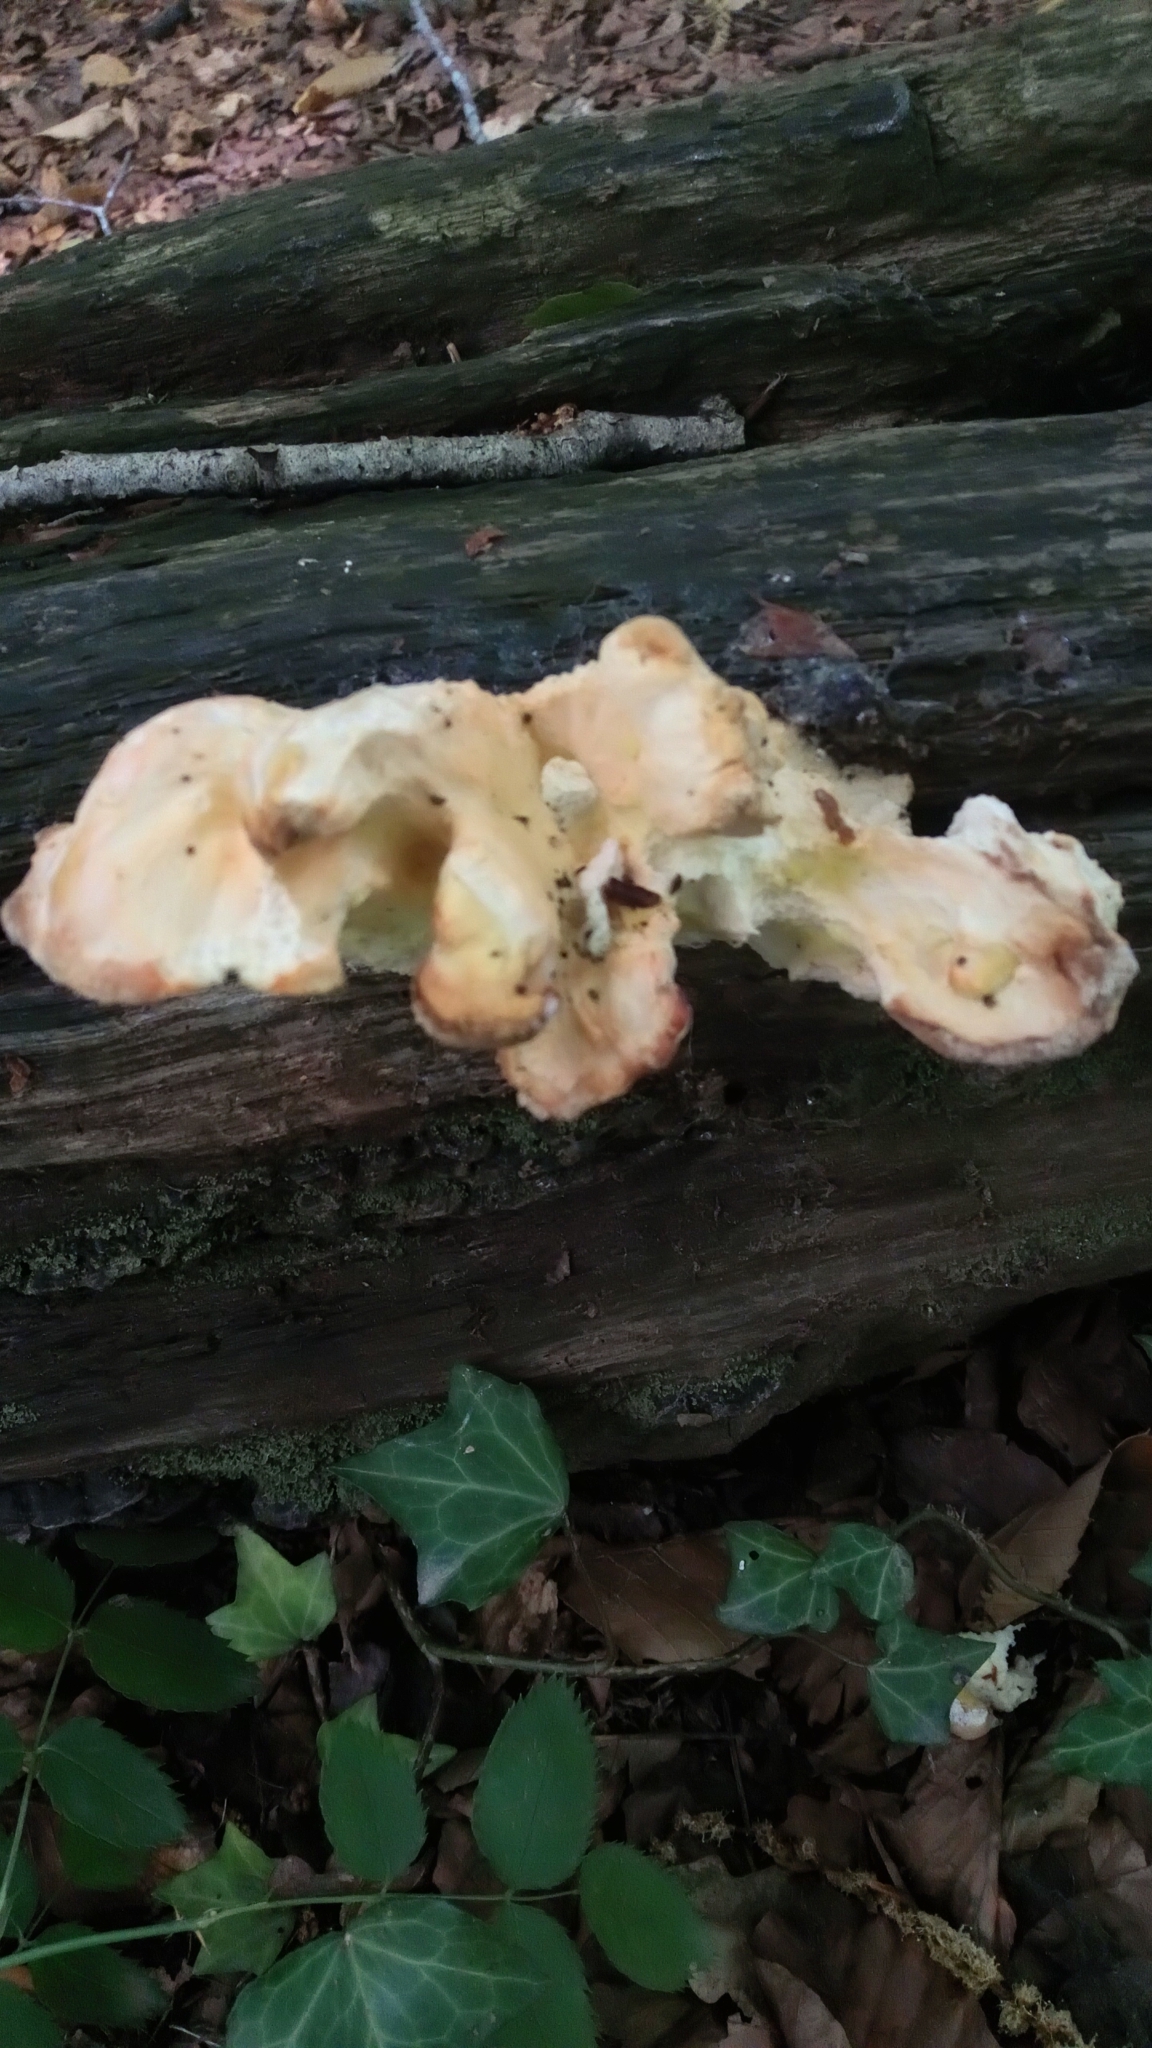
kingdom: Fungi
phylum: Basidiomycota
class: Agaricomycetes
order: Polyporales
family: Laetiporaceae
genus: Laetiporus
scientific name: Laetiporus sulphureus
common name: Chicken of the woods
